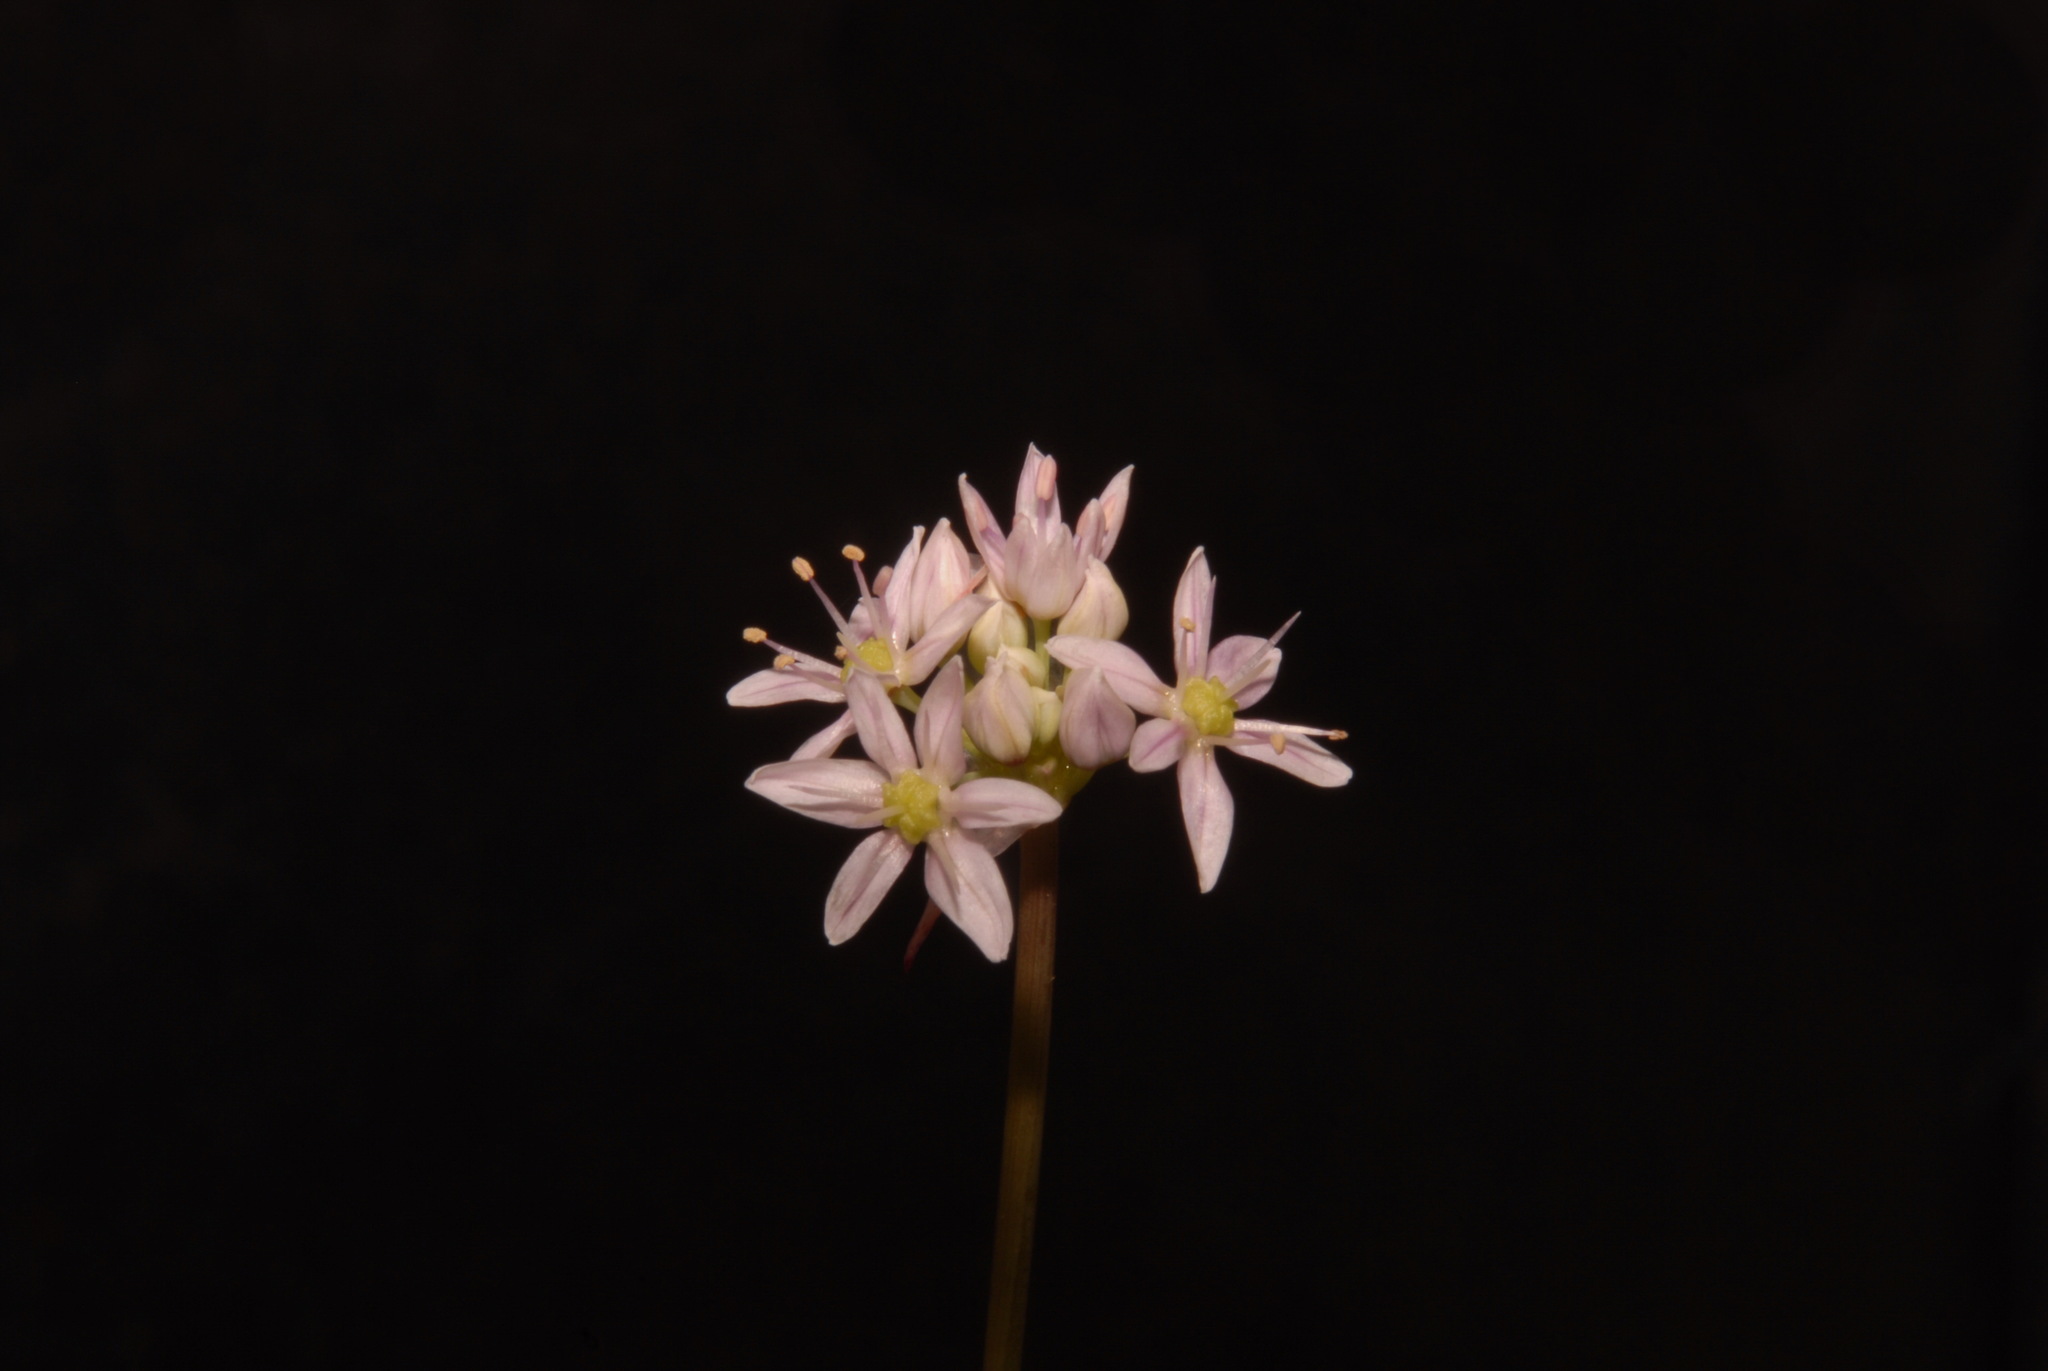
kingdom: Plantae
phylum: Tracheophyta
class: Liliopsida
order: Asparagales
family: Amaryllidaceae
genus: Allium
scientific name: Allium speculae
